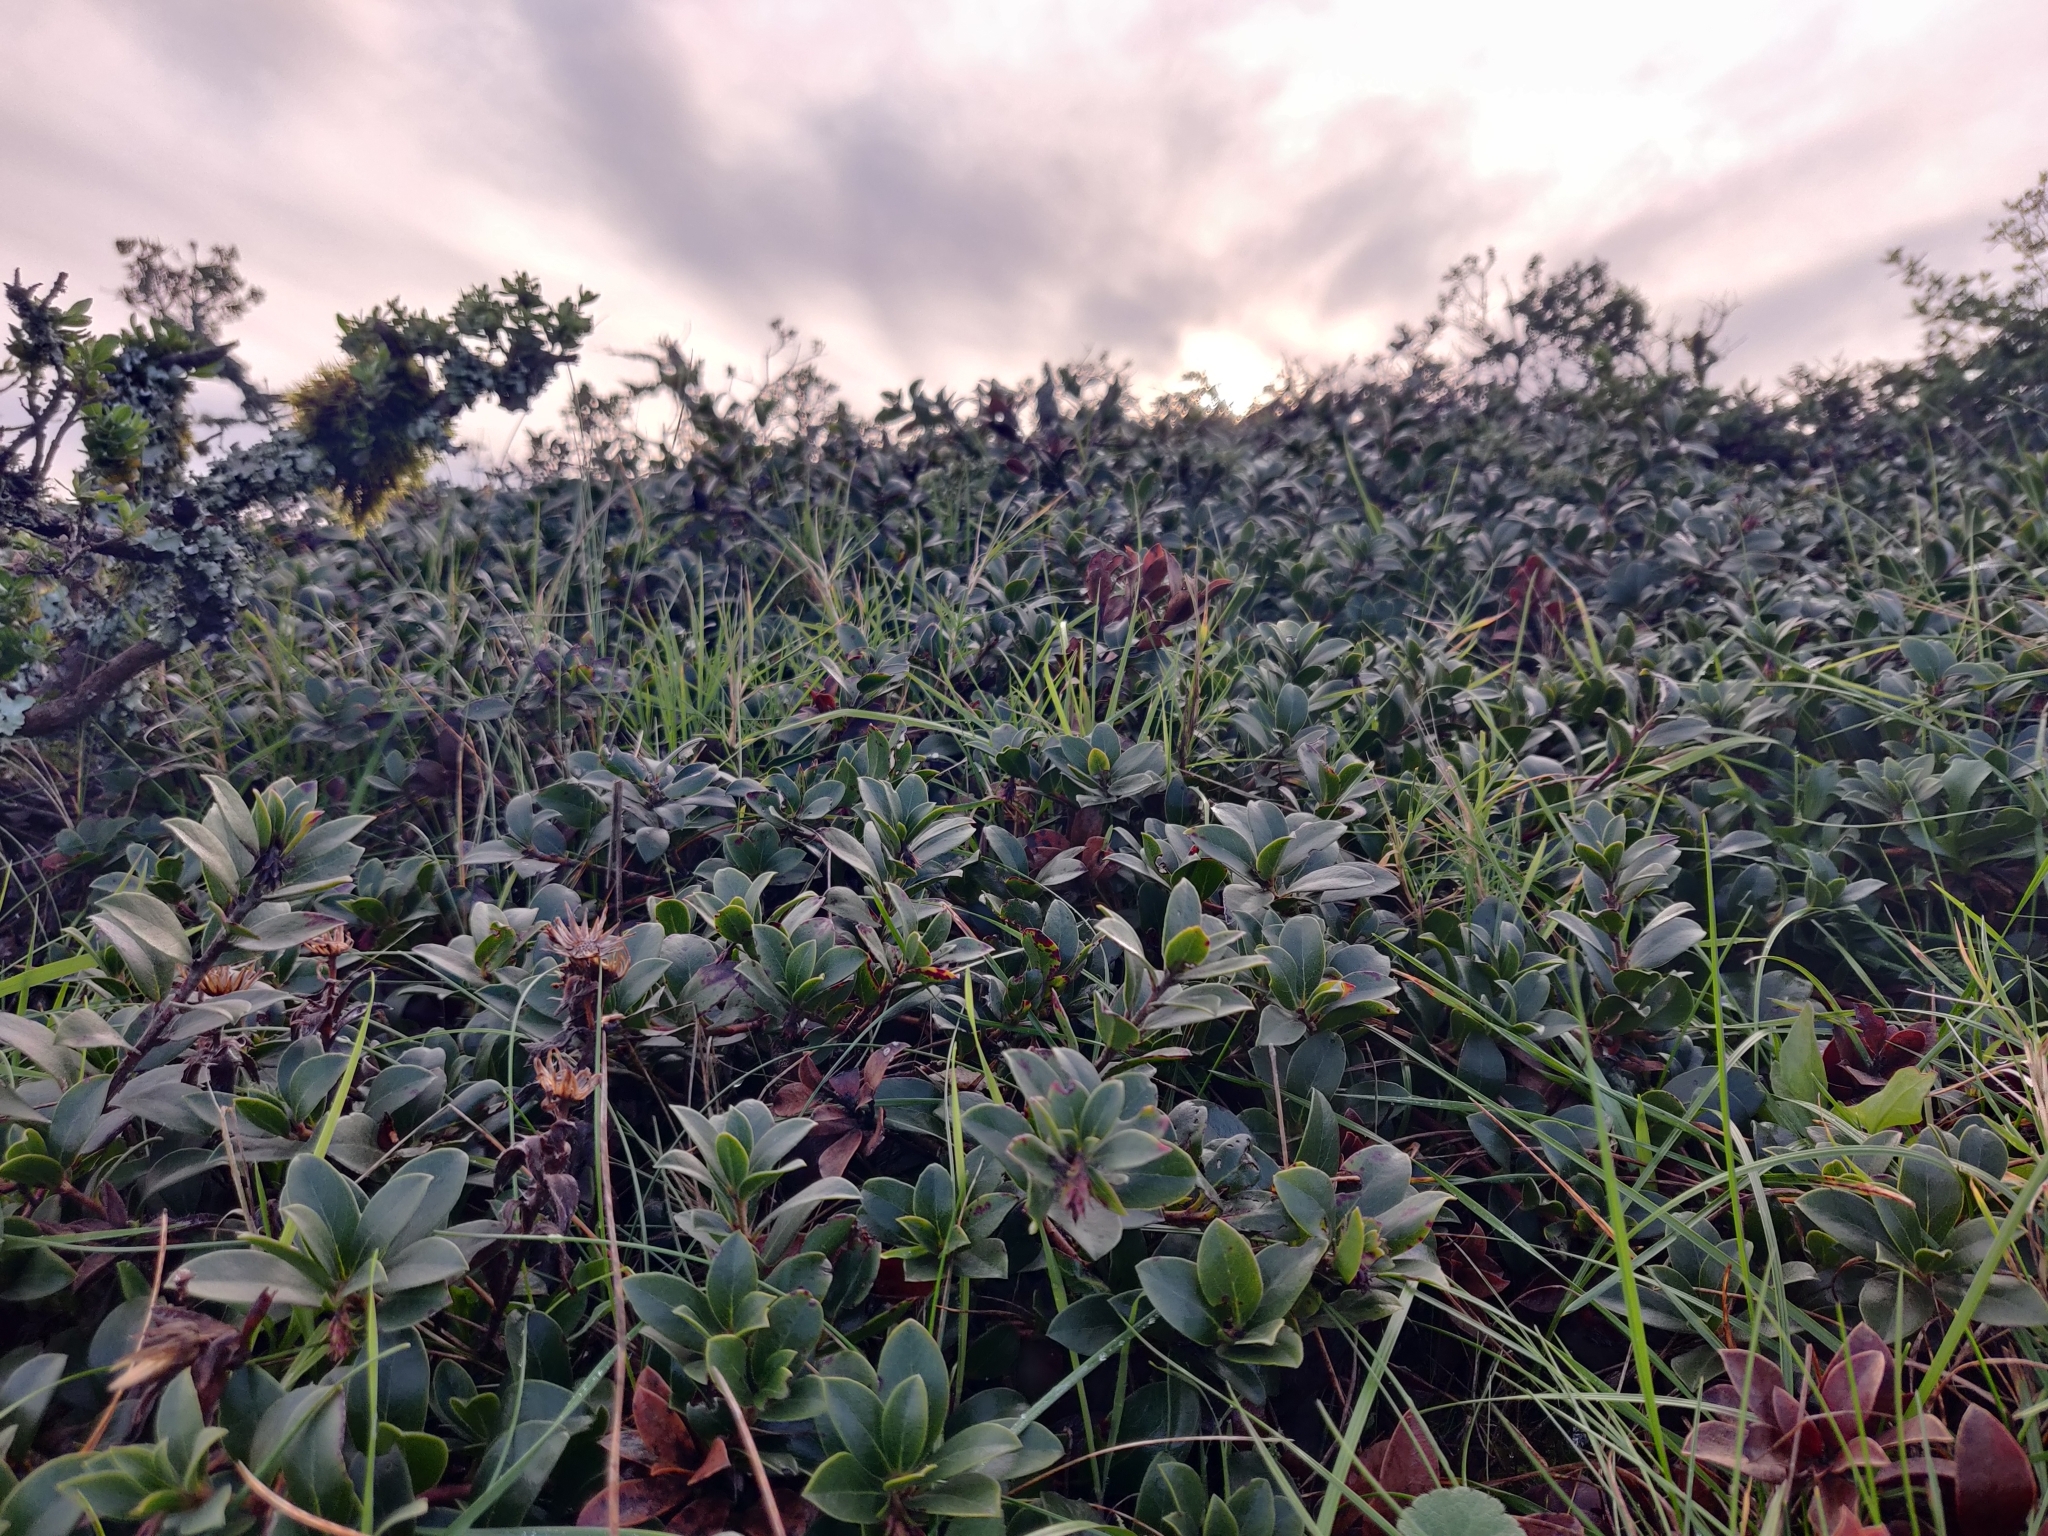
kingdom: Plantae
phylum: Tracheophyta
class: Magnoliopsida
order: Ericales
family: Ericaceae
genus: Arctostaphylos
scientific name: Arctostaphylos uva-ursi
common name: Bearberry
